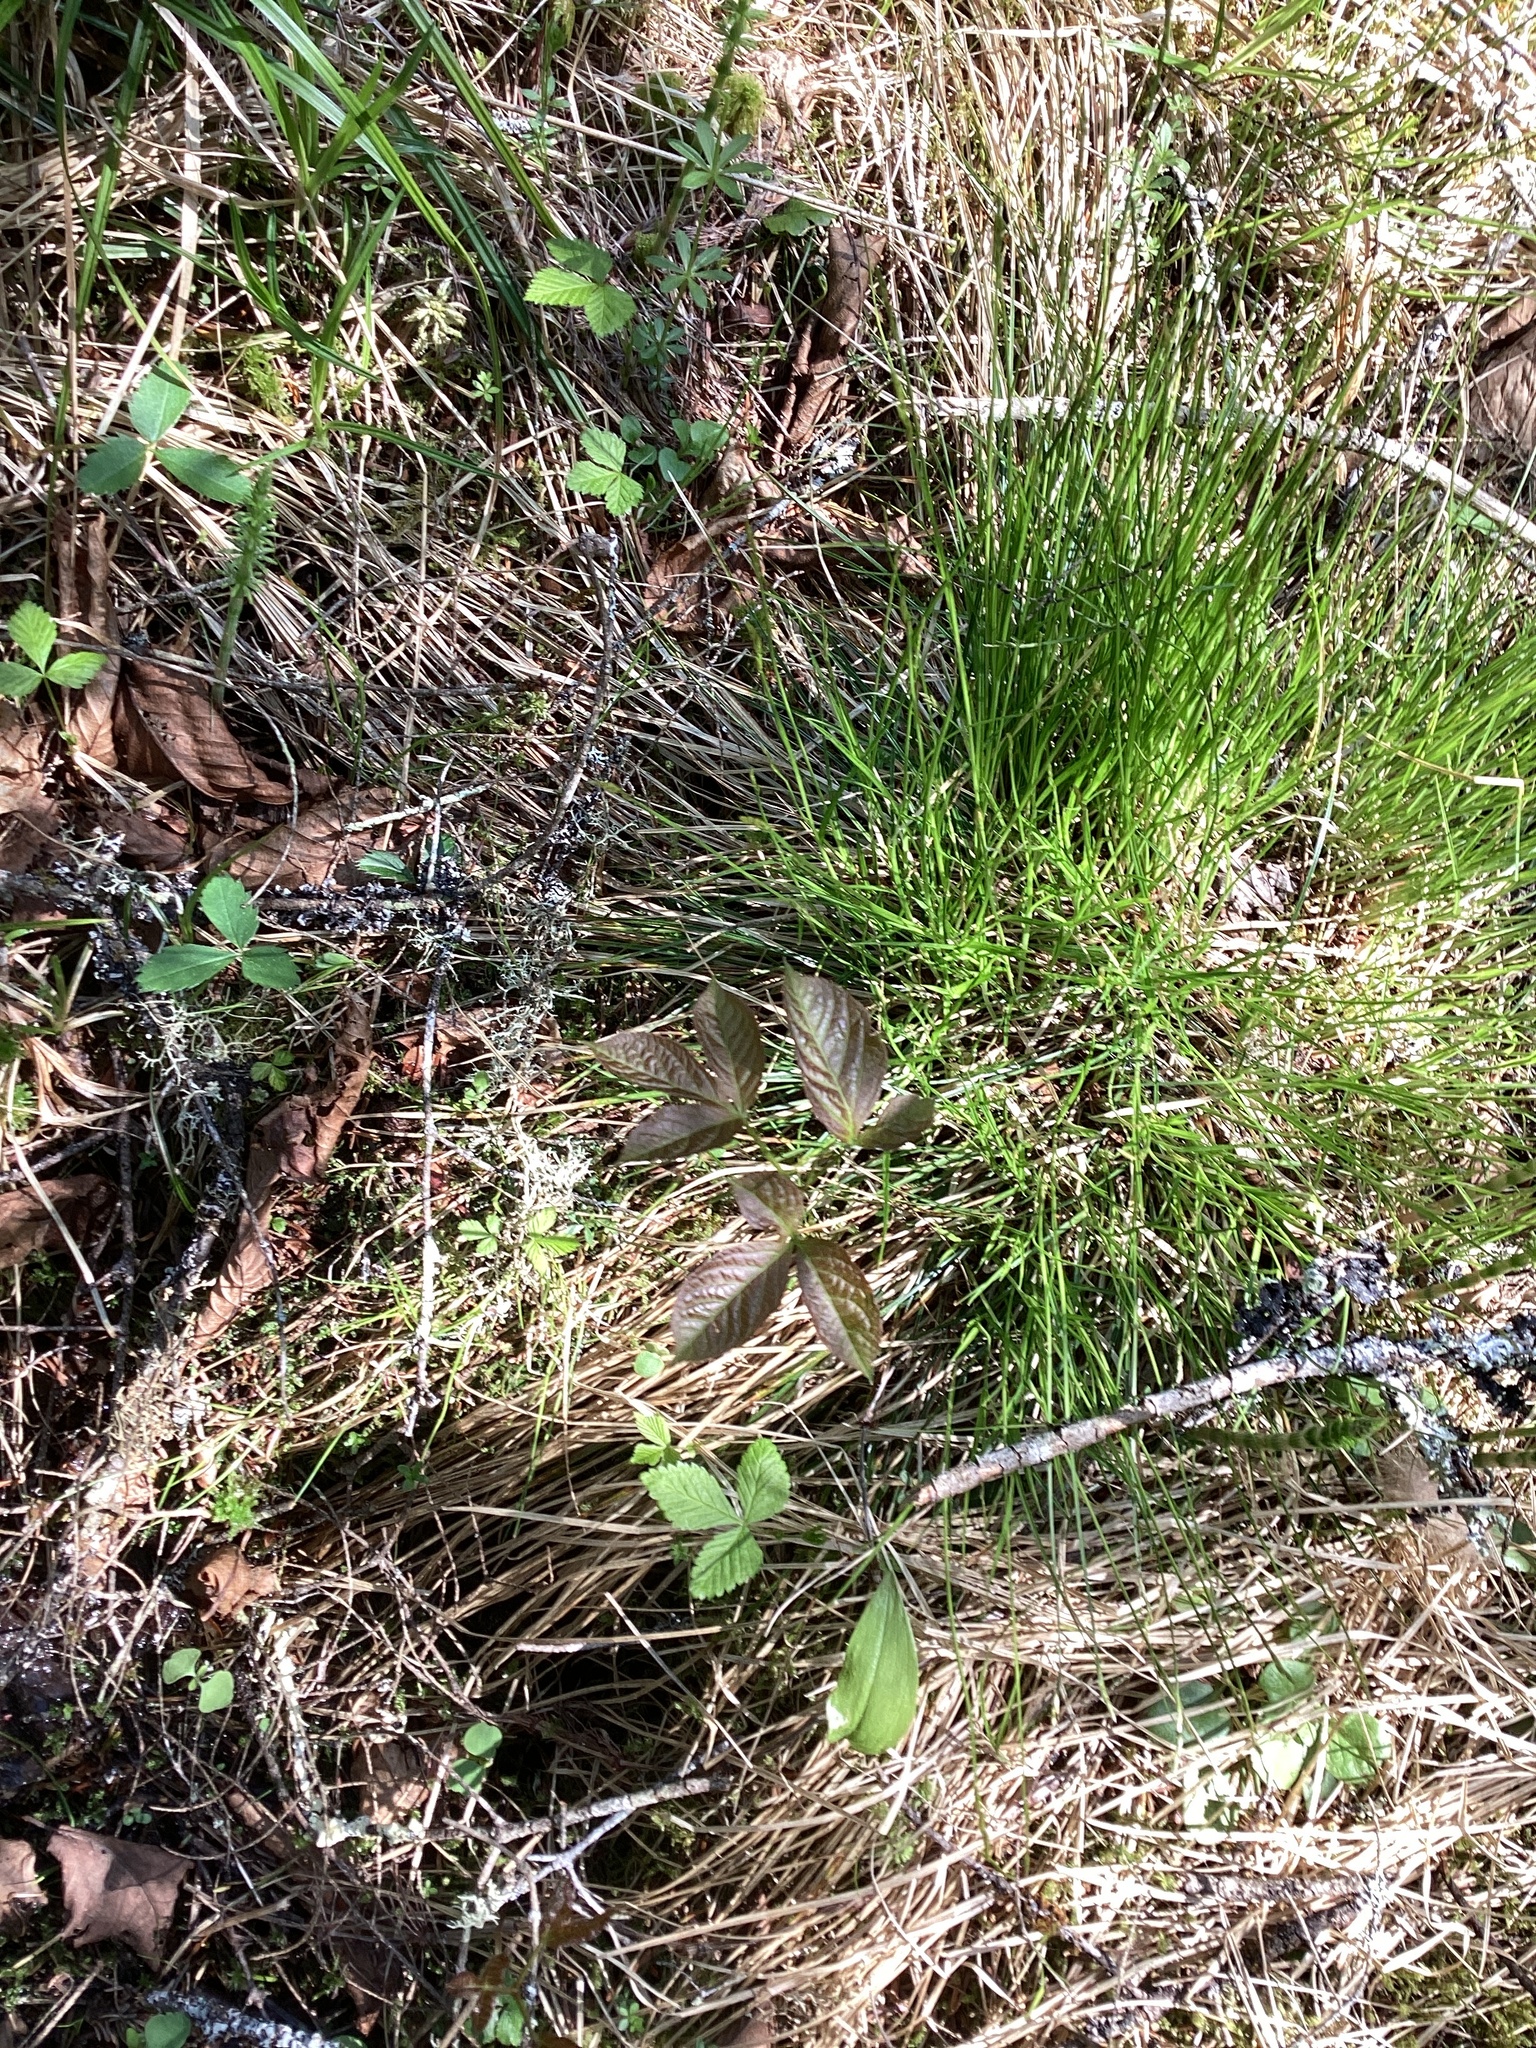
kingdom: Plantae
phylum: Tracheophyta
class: Magnoliopsida
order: Apiales
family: Araliaceae
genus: Aralia
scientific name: Aralia nudicaulis
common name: Wild sarsaparilla
